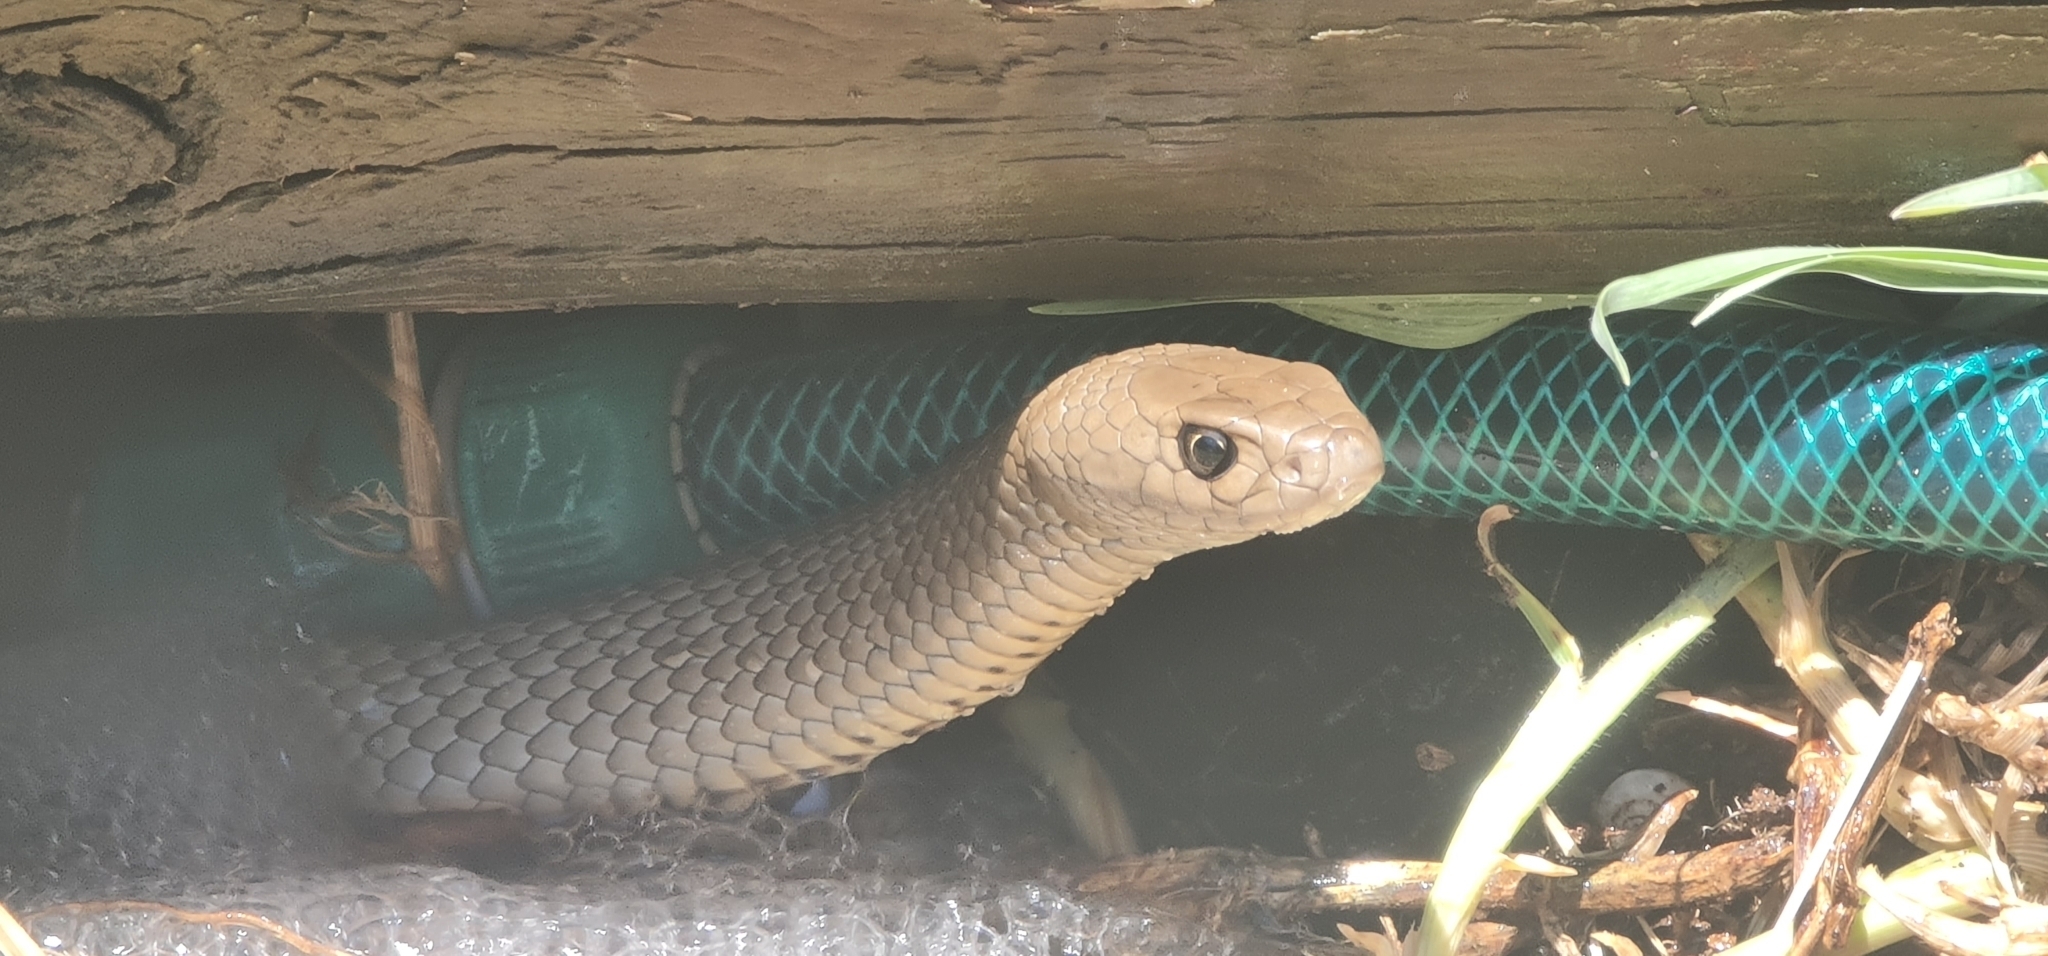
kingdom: Animalia
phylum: Chordata
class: Squamata
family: Elapidae
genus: Pseudonaja
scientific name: Pseudonaja textilis
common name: Eastern brown snake
